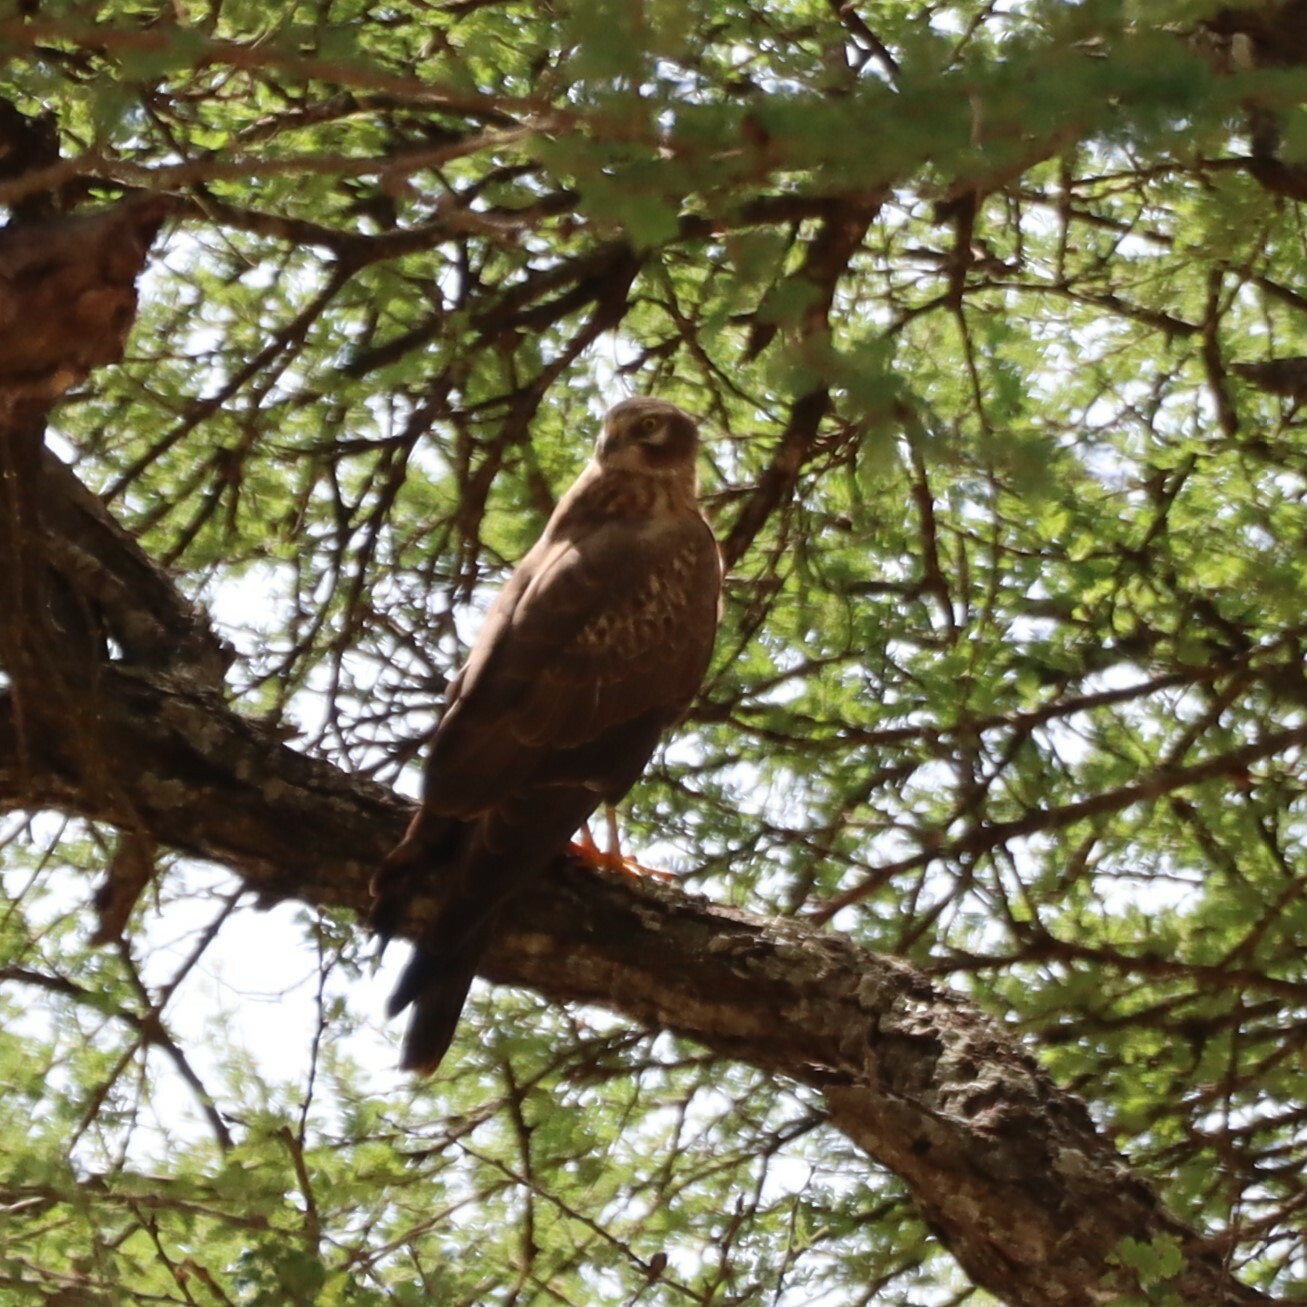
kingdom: Animalia
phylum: Chordata
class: Aves
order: Accipitriformes
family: Accipitridae
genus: Circus
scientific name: Circus pygargus
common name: Montagu's harrier
